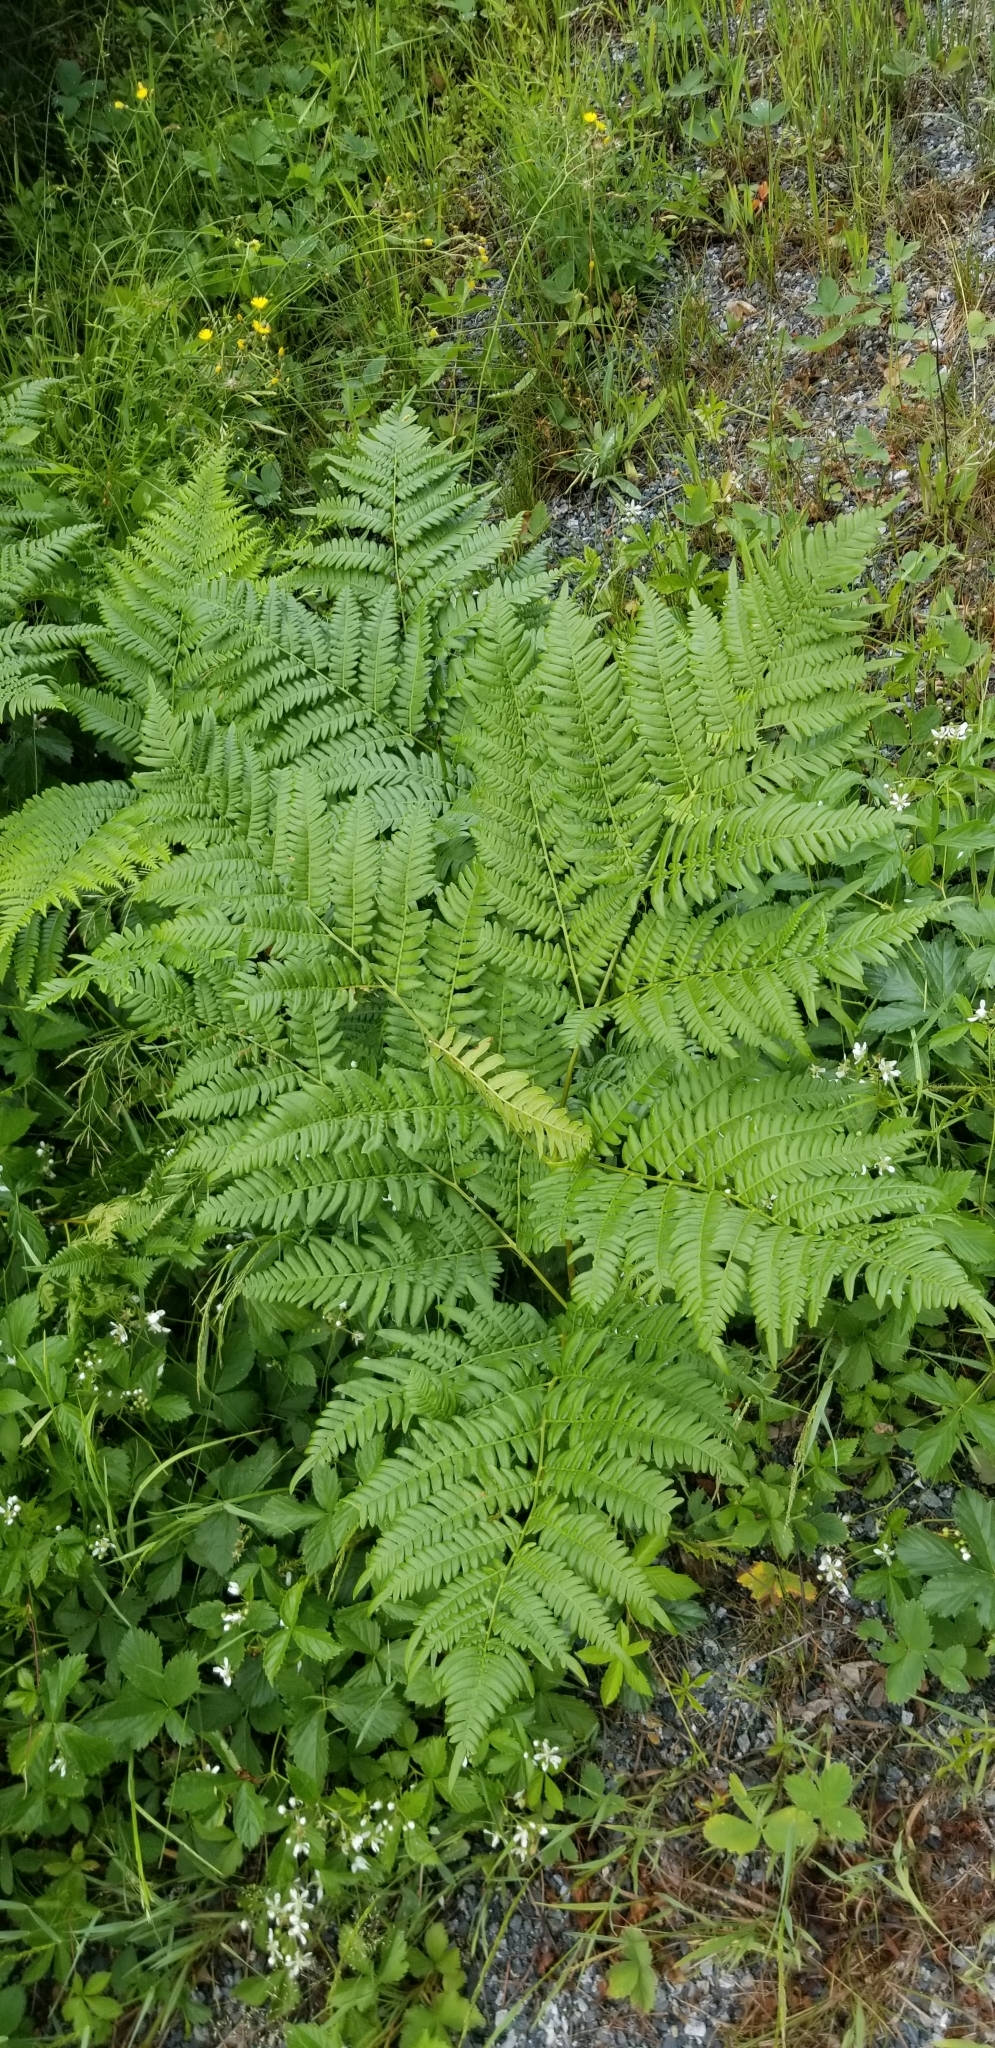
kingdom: Plantae
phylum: Tracheophyta
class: Polypodiopsida
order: Polypodiales
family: Dennstaedtiaceae
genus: Pteridium
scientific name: Pteridium aquilinum
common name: Bracken
